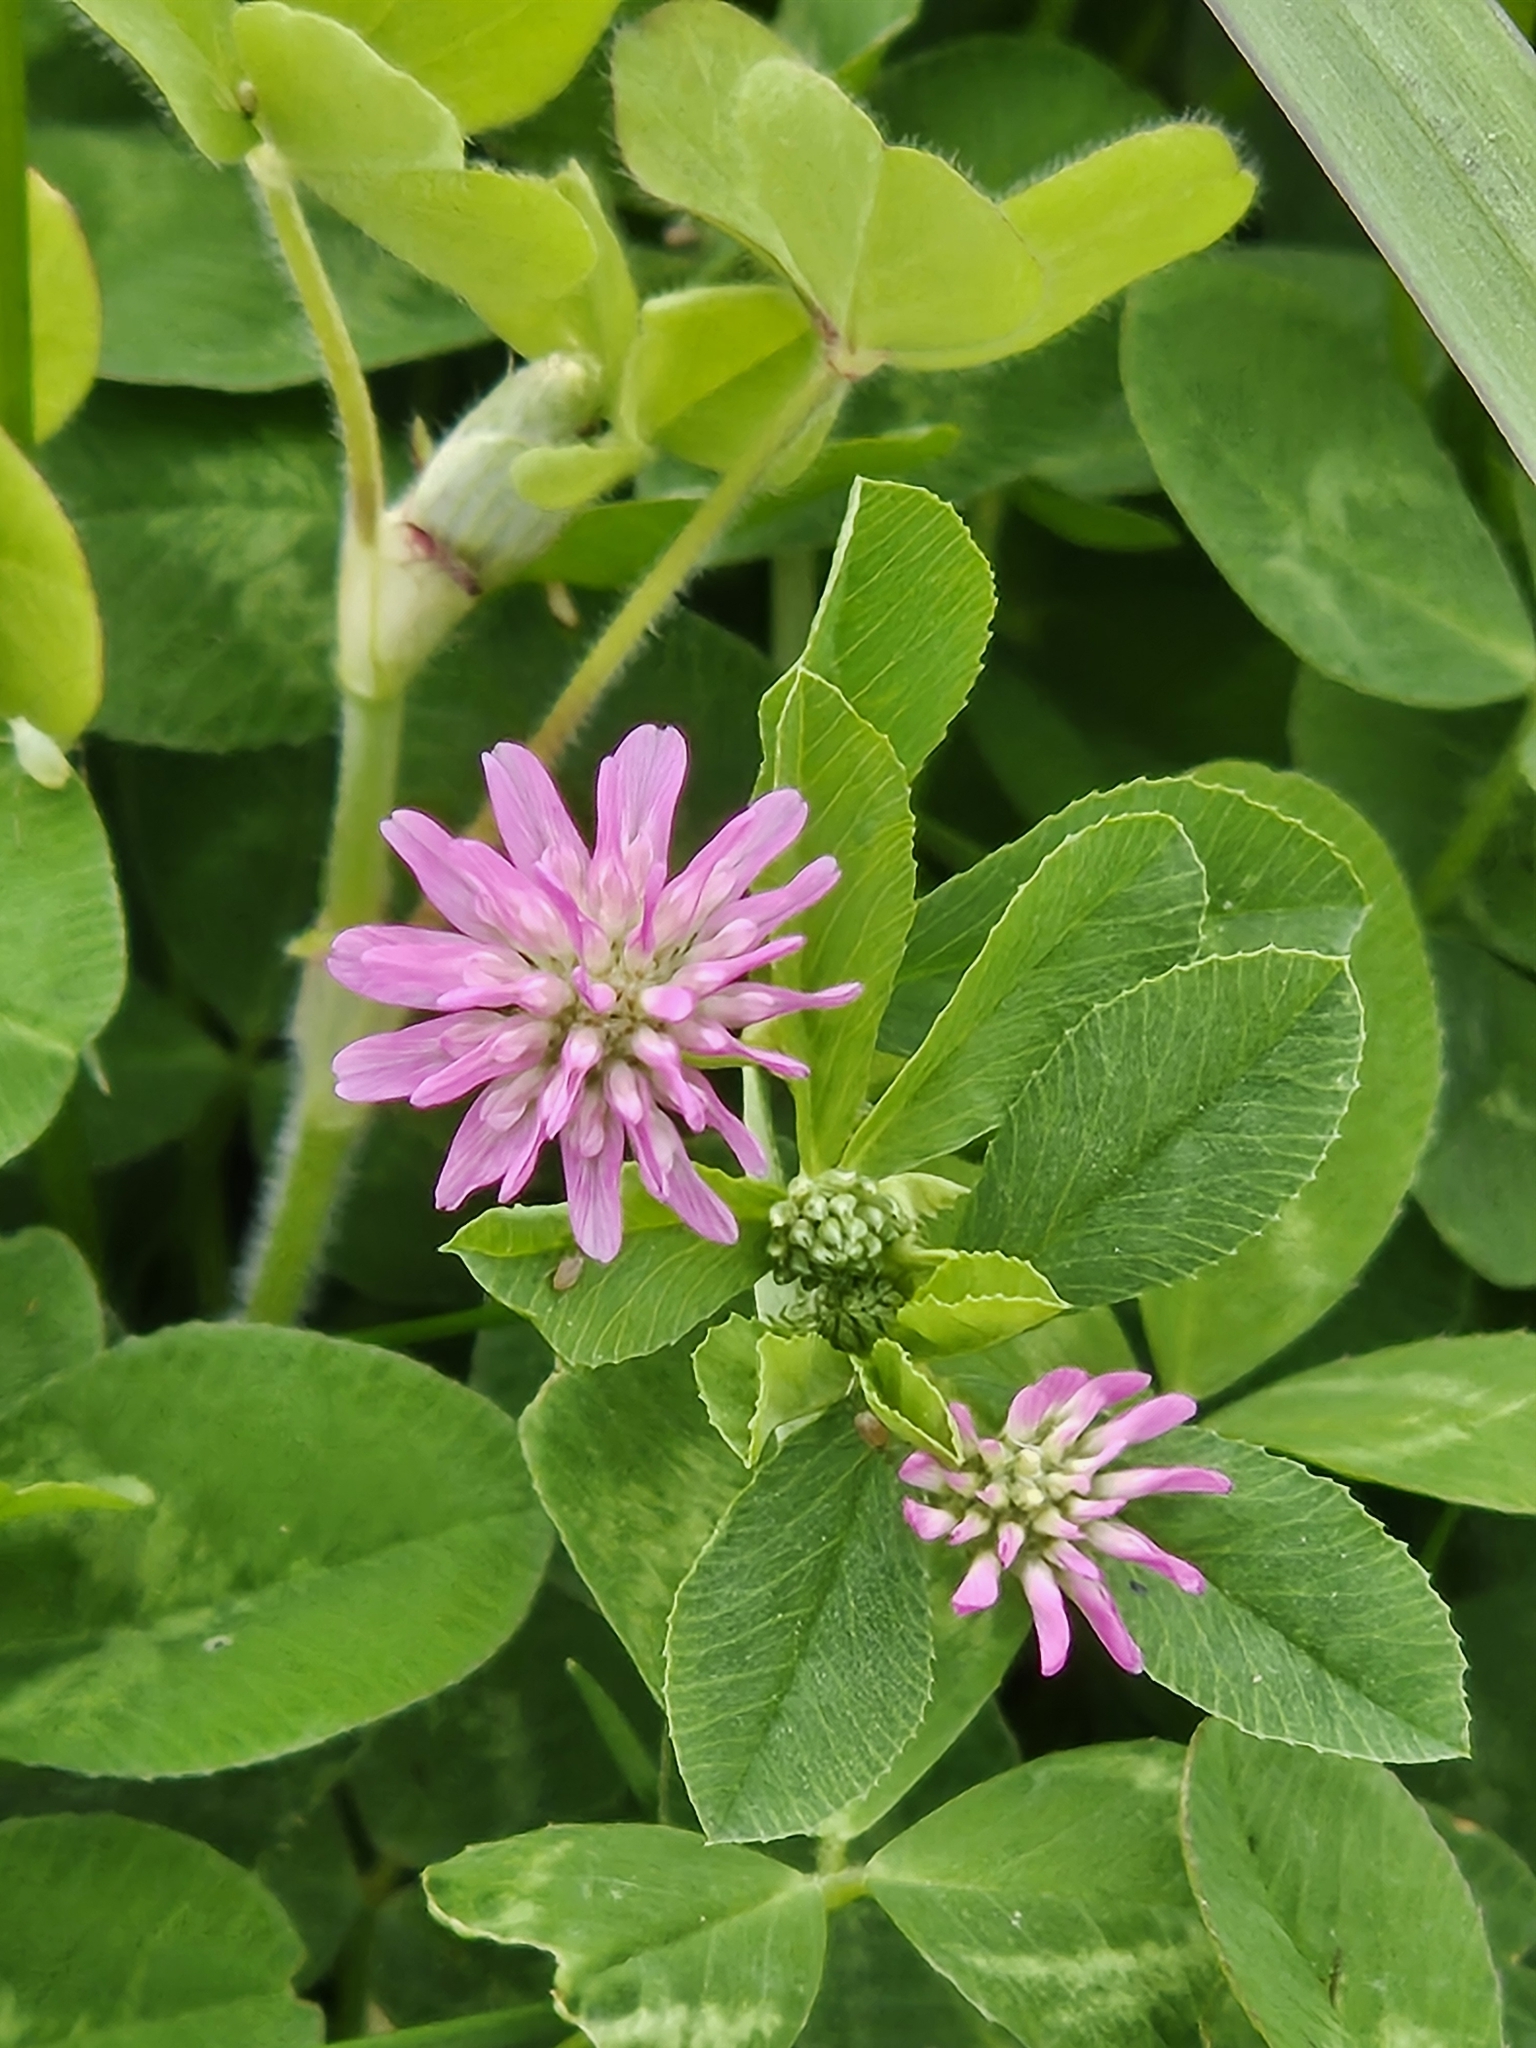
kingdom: Plantae
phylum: Tracheophyta
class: Magnoliopsida
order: Fabales
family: Fabaceae
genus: Trifolium
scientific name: Trifolium resupinatum
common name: Reversed clover
